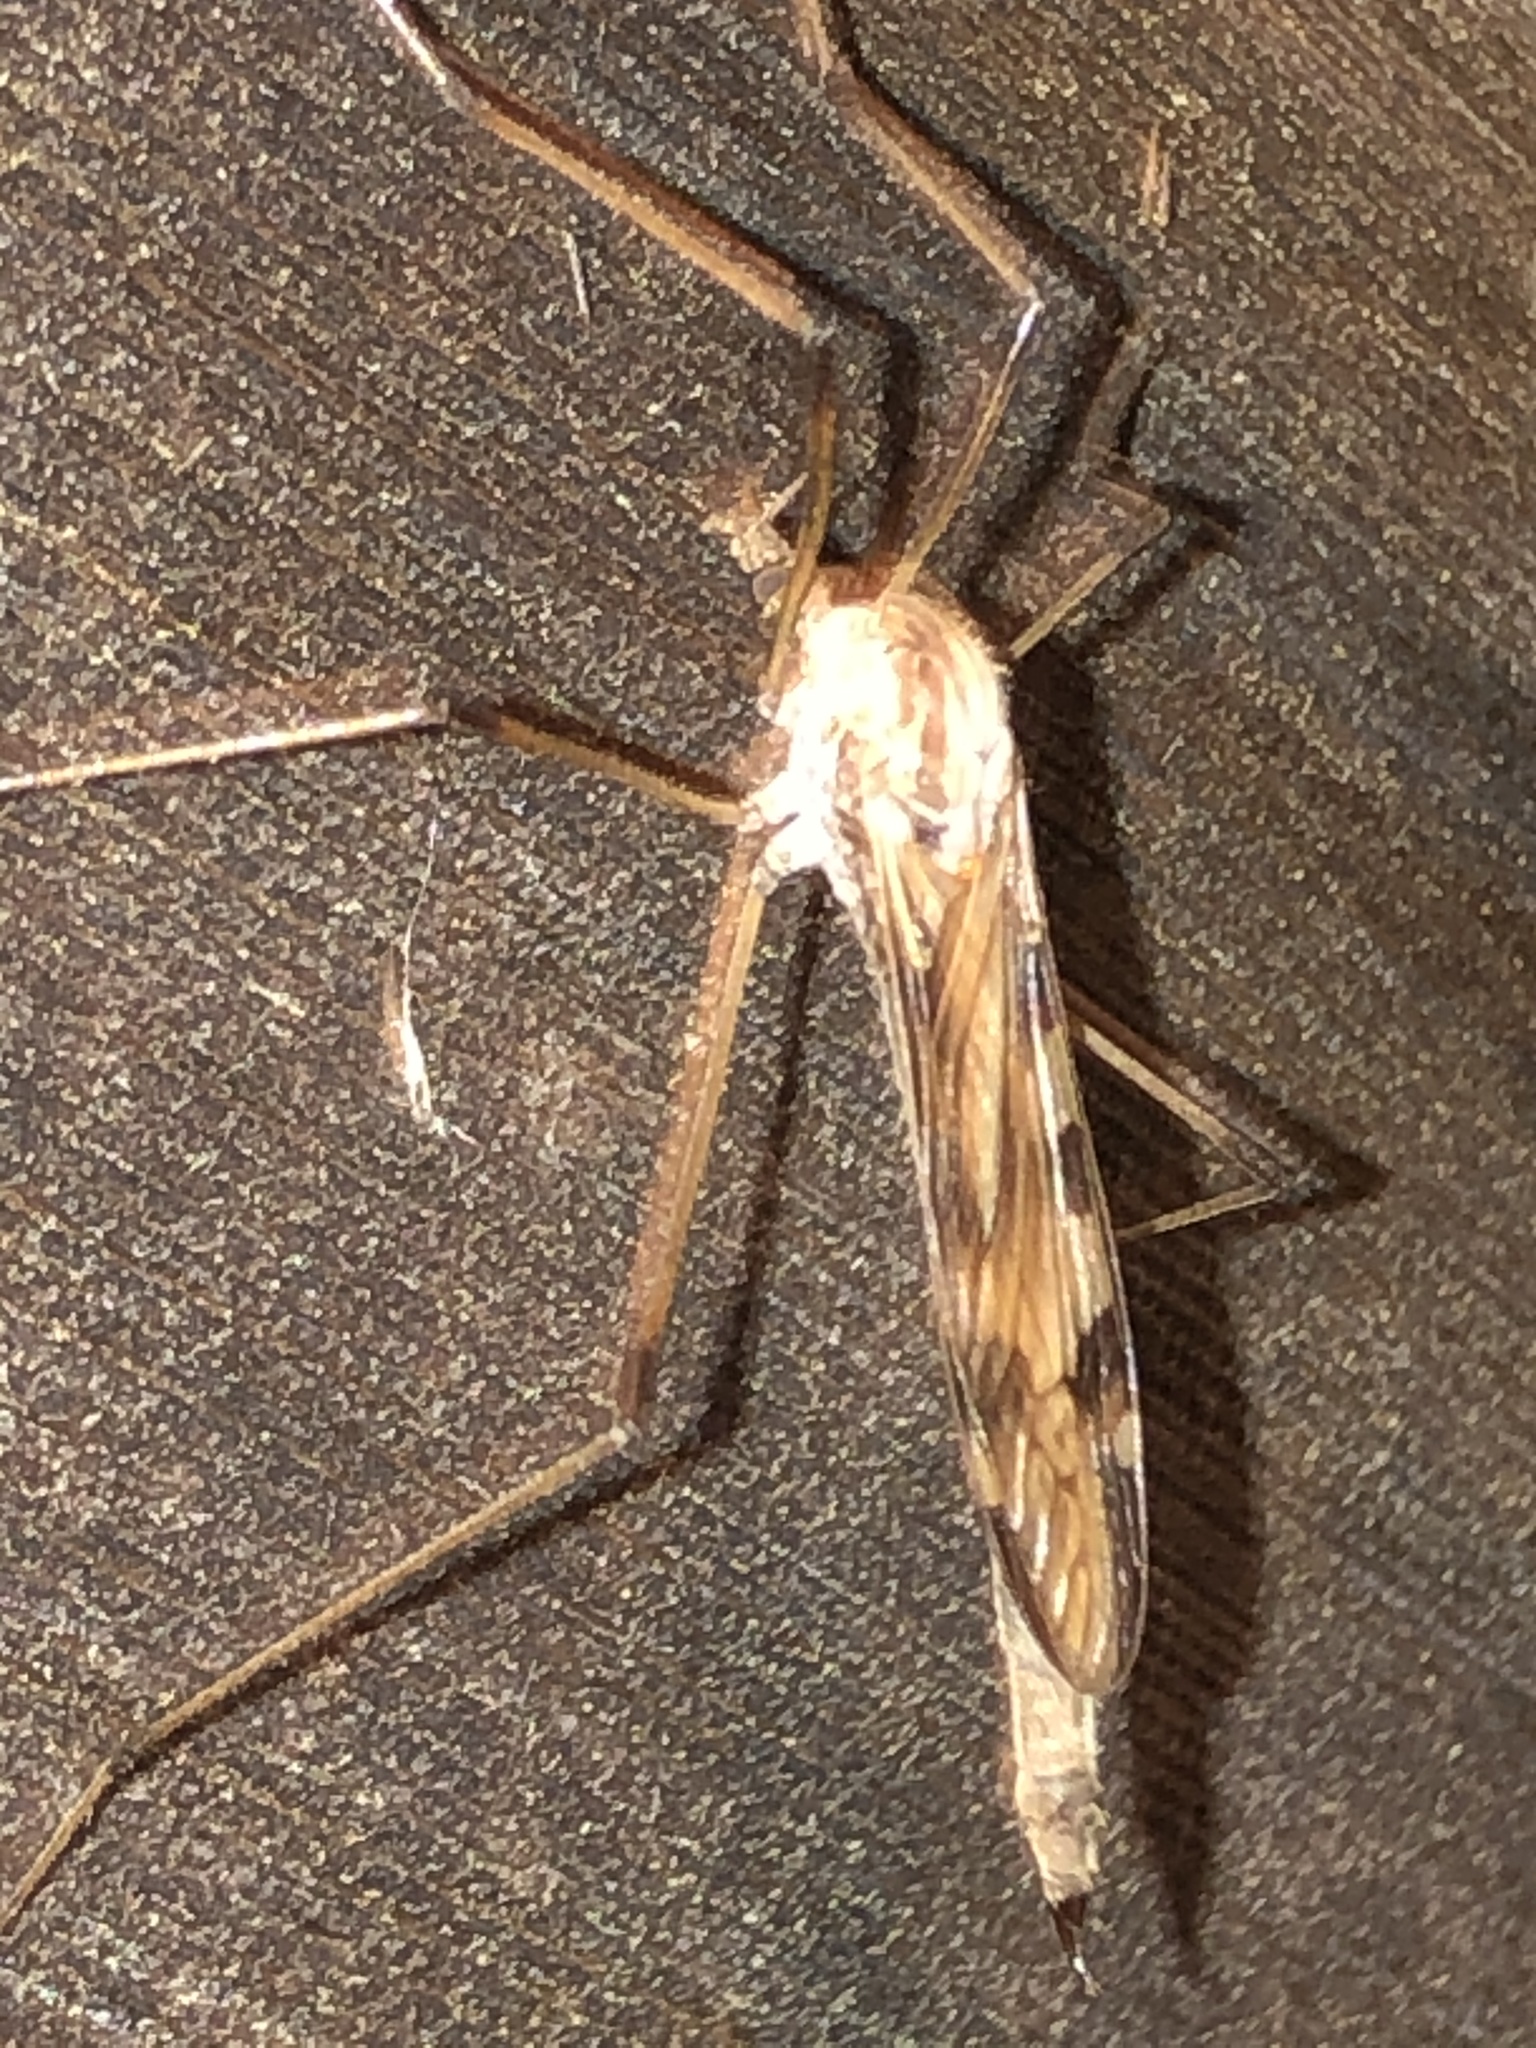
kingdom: Animalia
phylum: Arthropoda
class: Insecta
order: Diptera
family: Limoniidae
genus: Eutonia
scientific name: Eutonia marchandi
